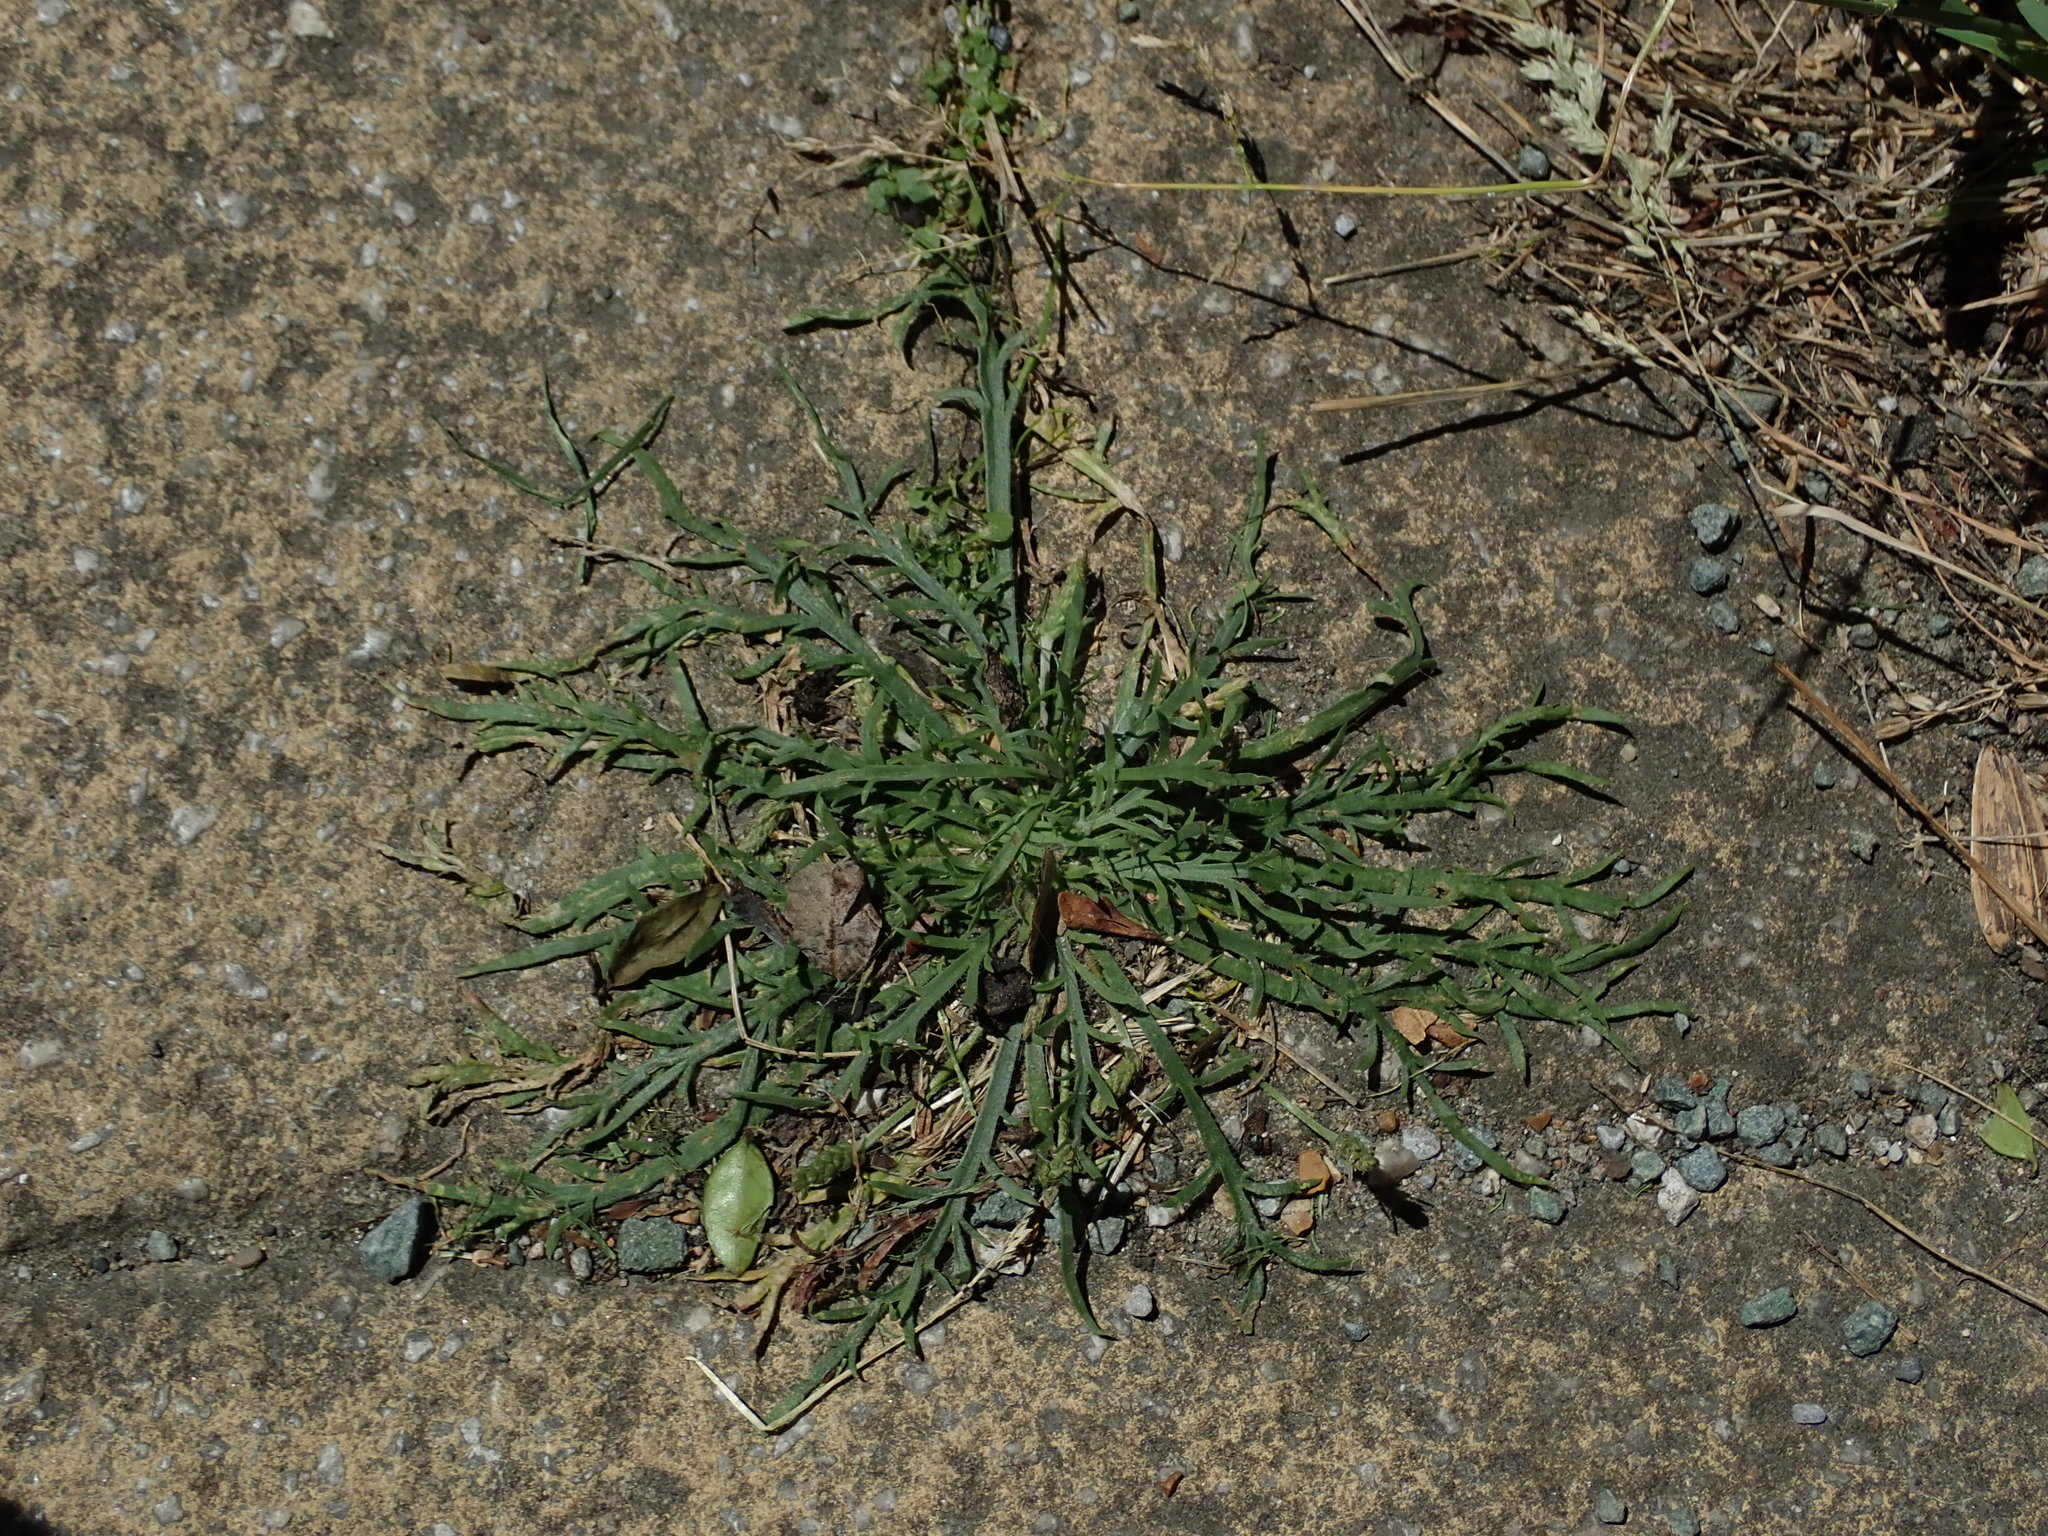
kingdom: Plantae
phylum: Tracheophyta
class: Magnoliopsida
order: Lamiales
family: Plantaginaceae
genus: Plantago
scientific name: Plantago coronopus
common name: Buck's-horn plantain
